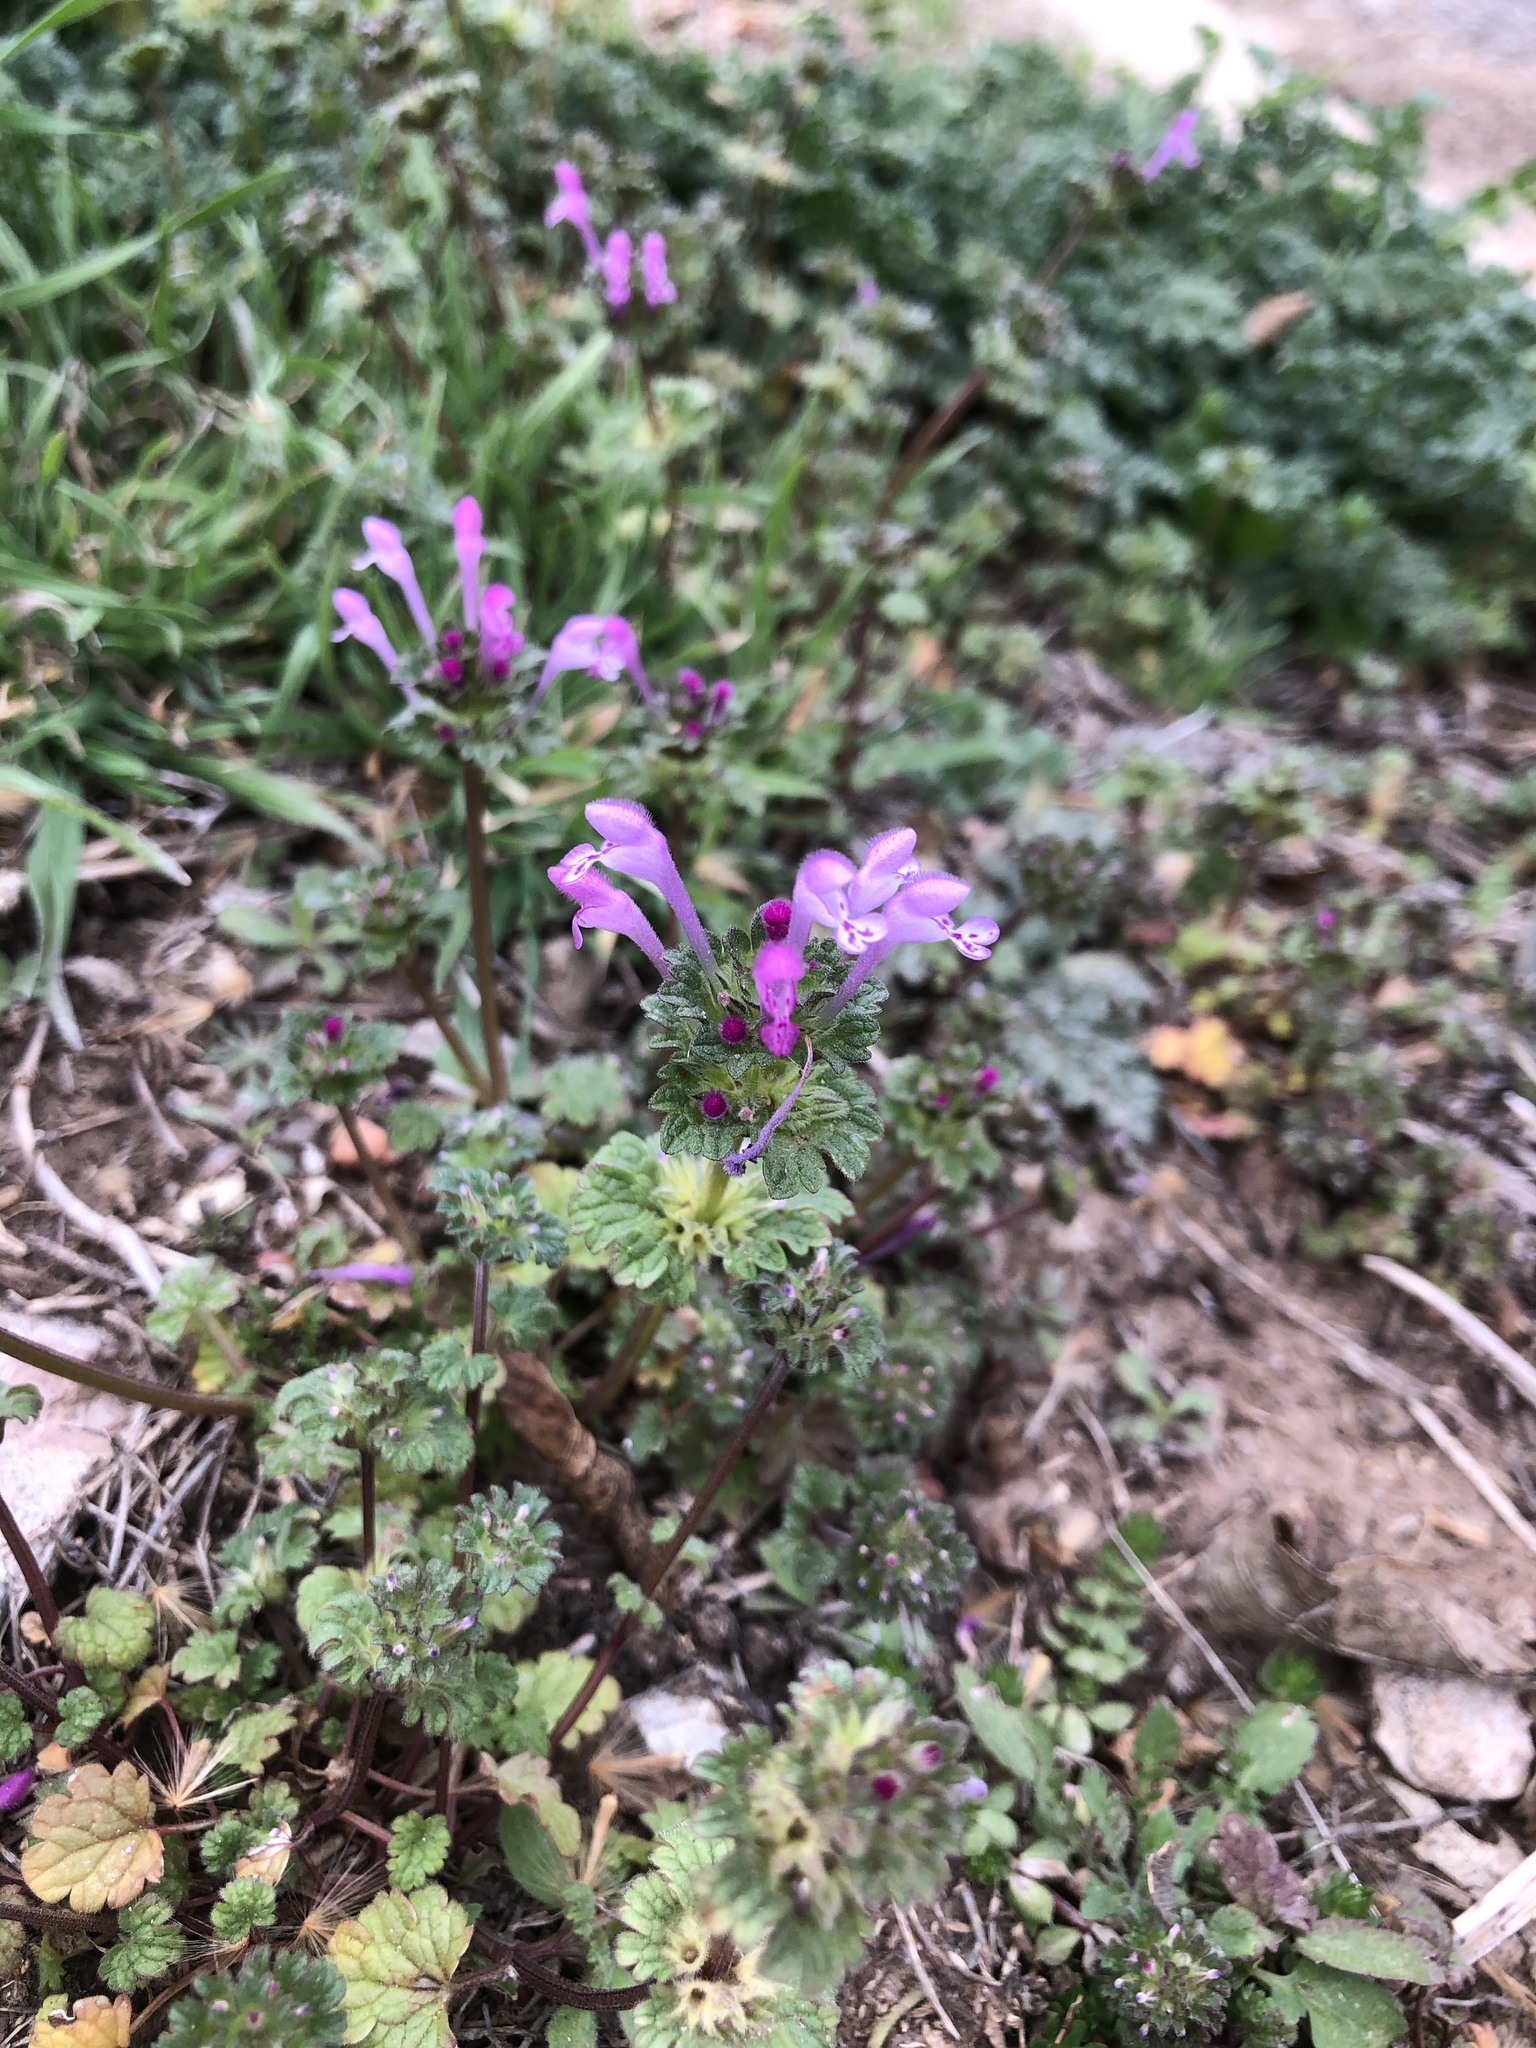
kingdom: Plantae
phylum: Tracheophyta
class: Magnoliopsida
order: Lamiales
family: Lamiaceae
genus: Lamium
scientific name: Lamium amplexicaule
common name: Henbit dead-nettle
